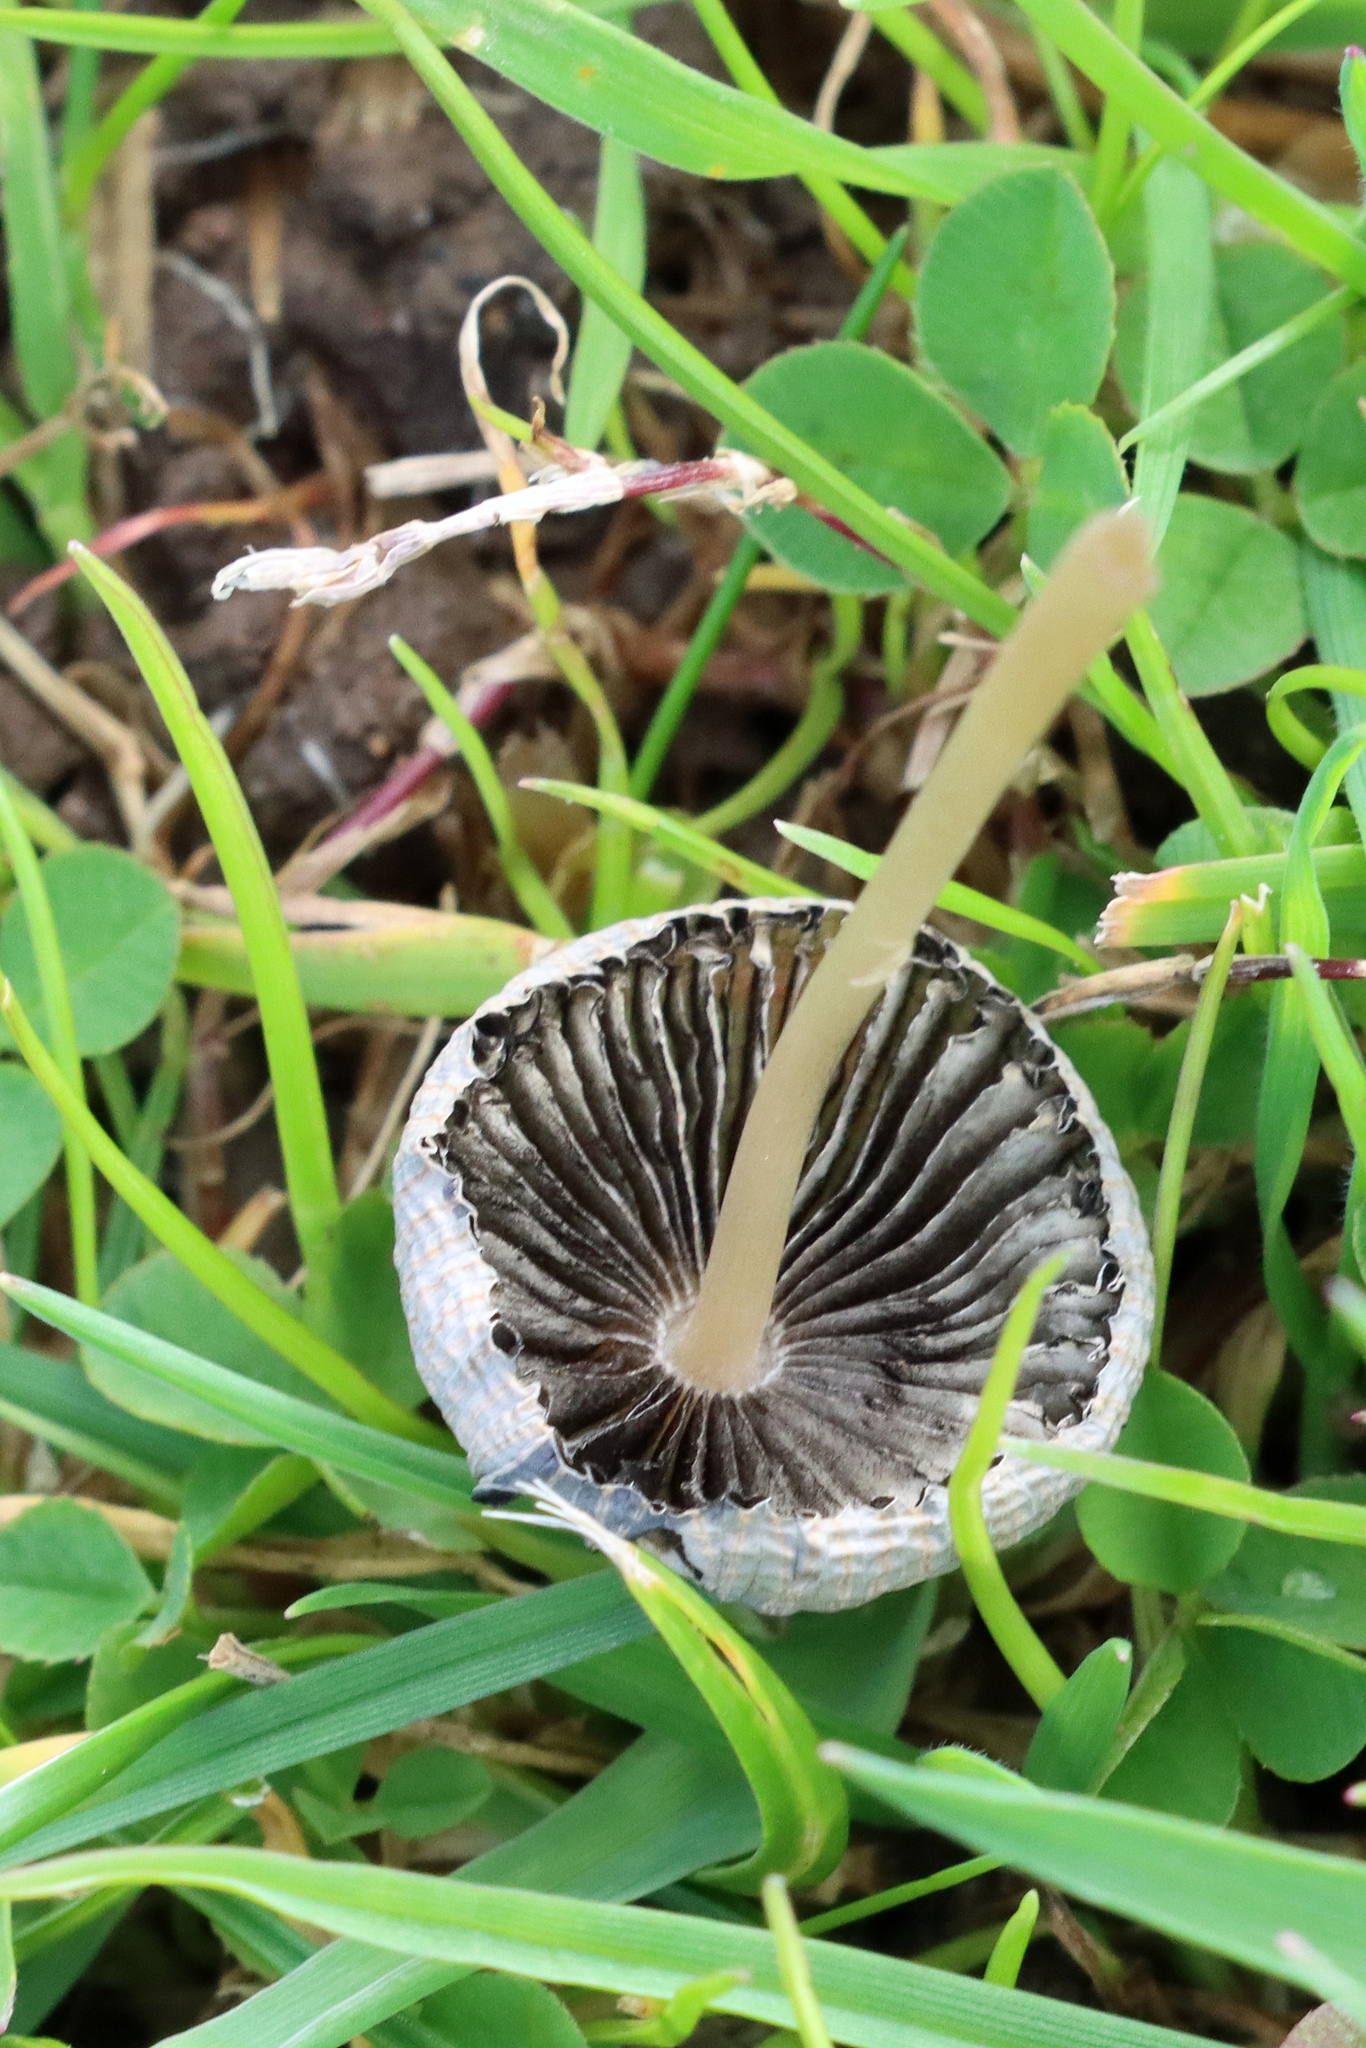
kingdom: Fungi
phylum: Basidiomycota
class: Agaricomycetes
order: Agaricales
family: Psathyrellaceae
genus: Parasola
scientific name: Parasola plicatilis
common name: Pleated inkcap
